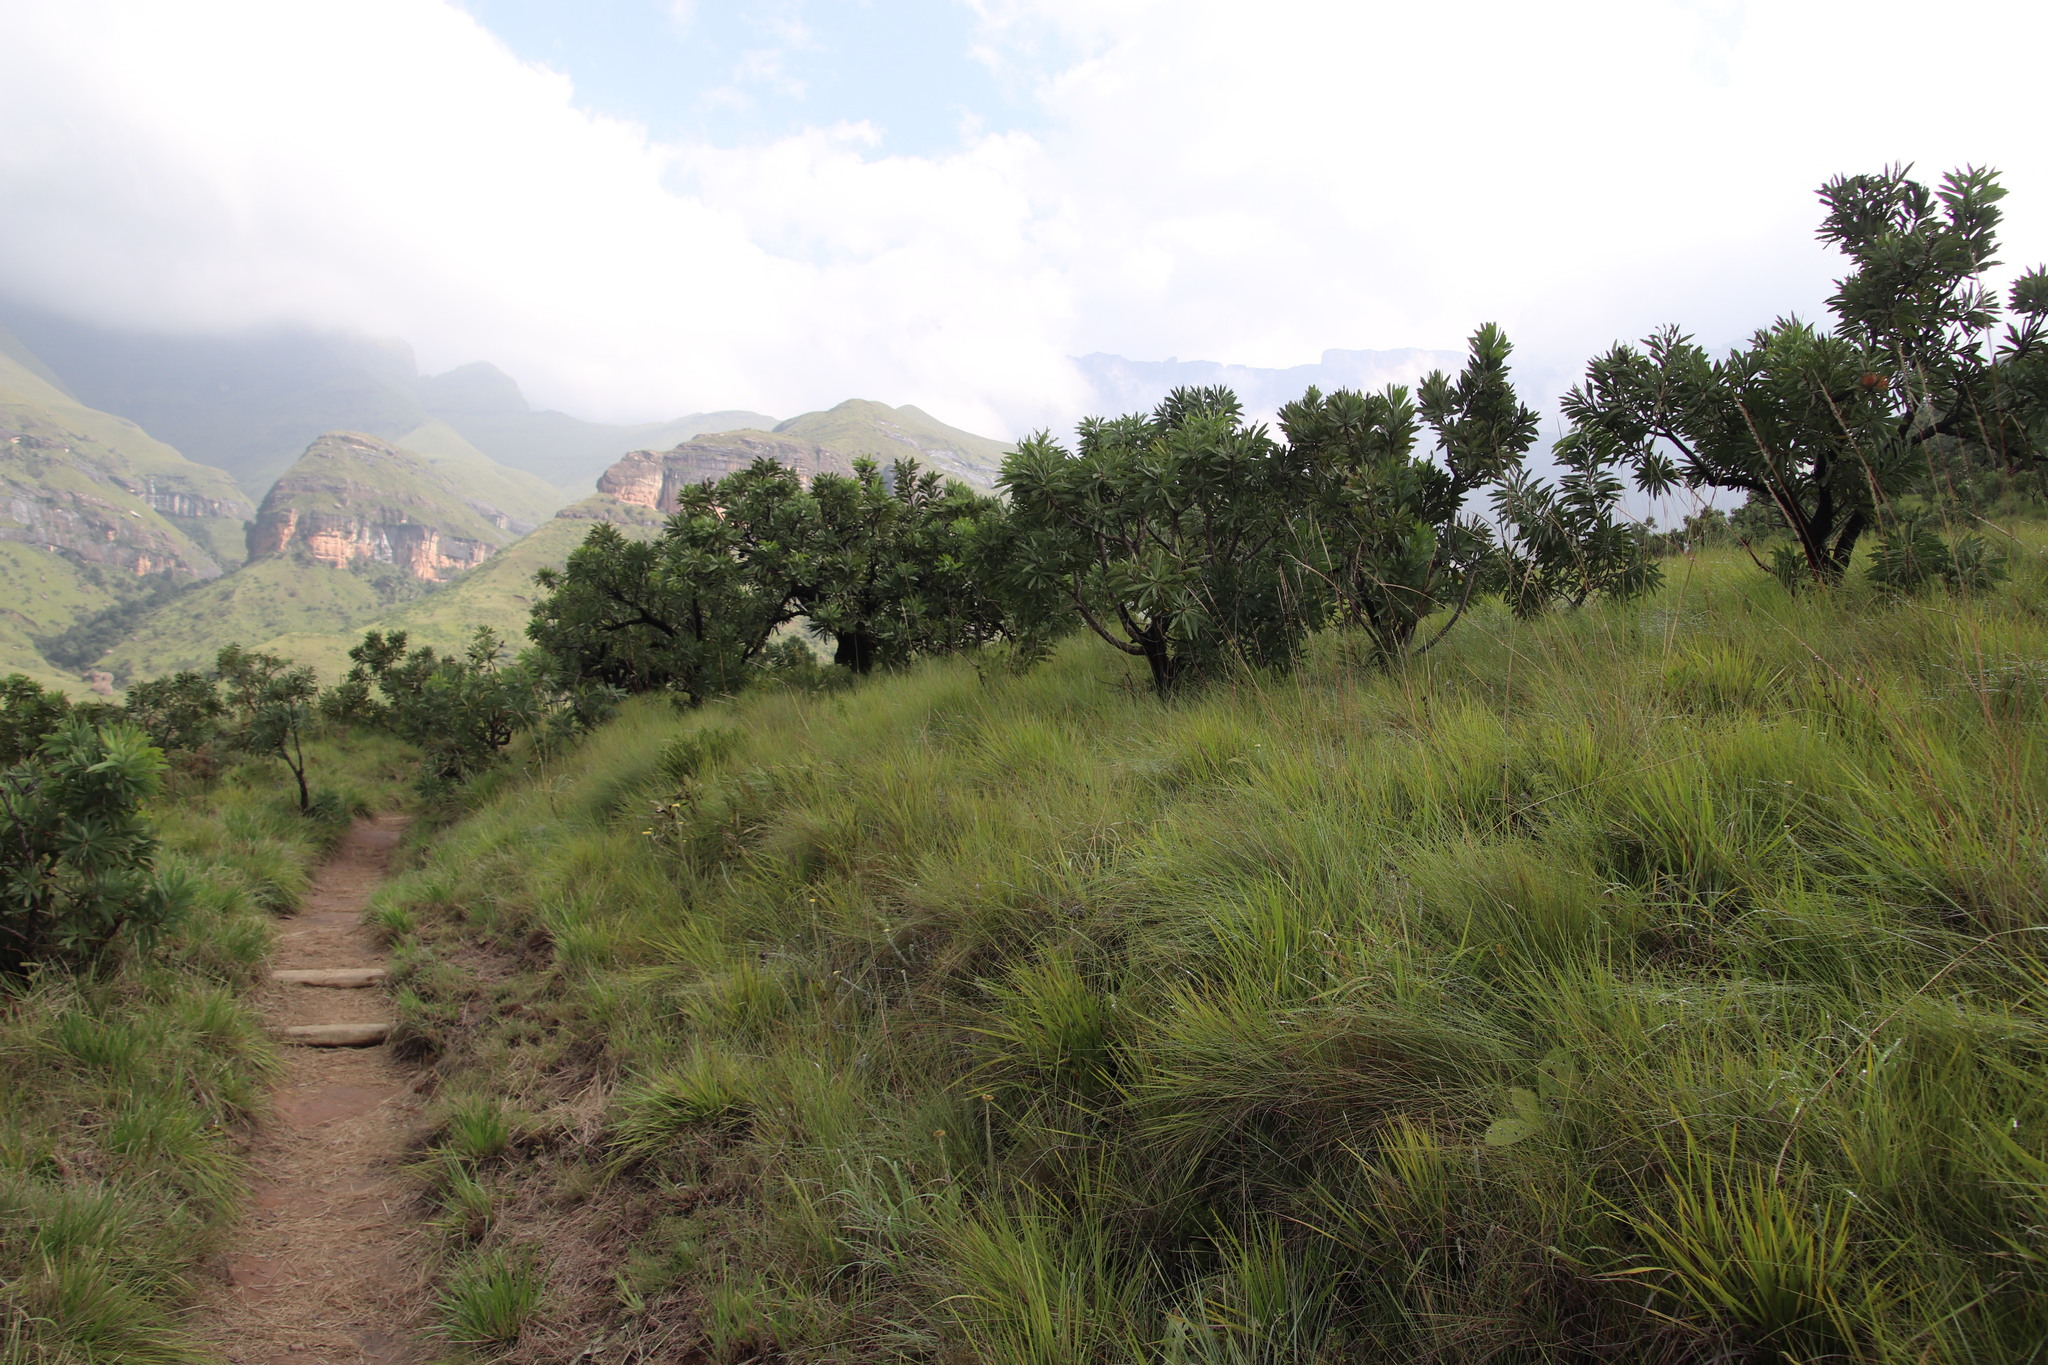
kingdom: Plantae
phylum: Tracheophyta
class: Magnoliopsida
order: Proteales
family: Proteaceae
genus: Protea
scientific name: Protea caffra
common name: Common sugarbush
